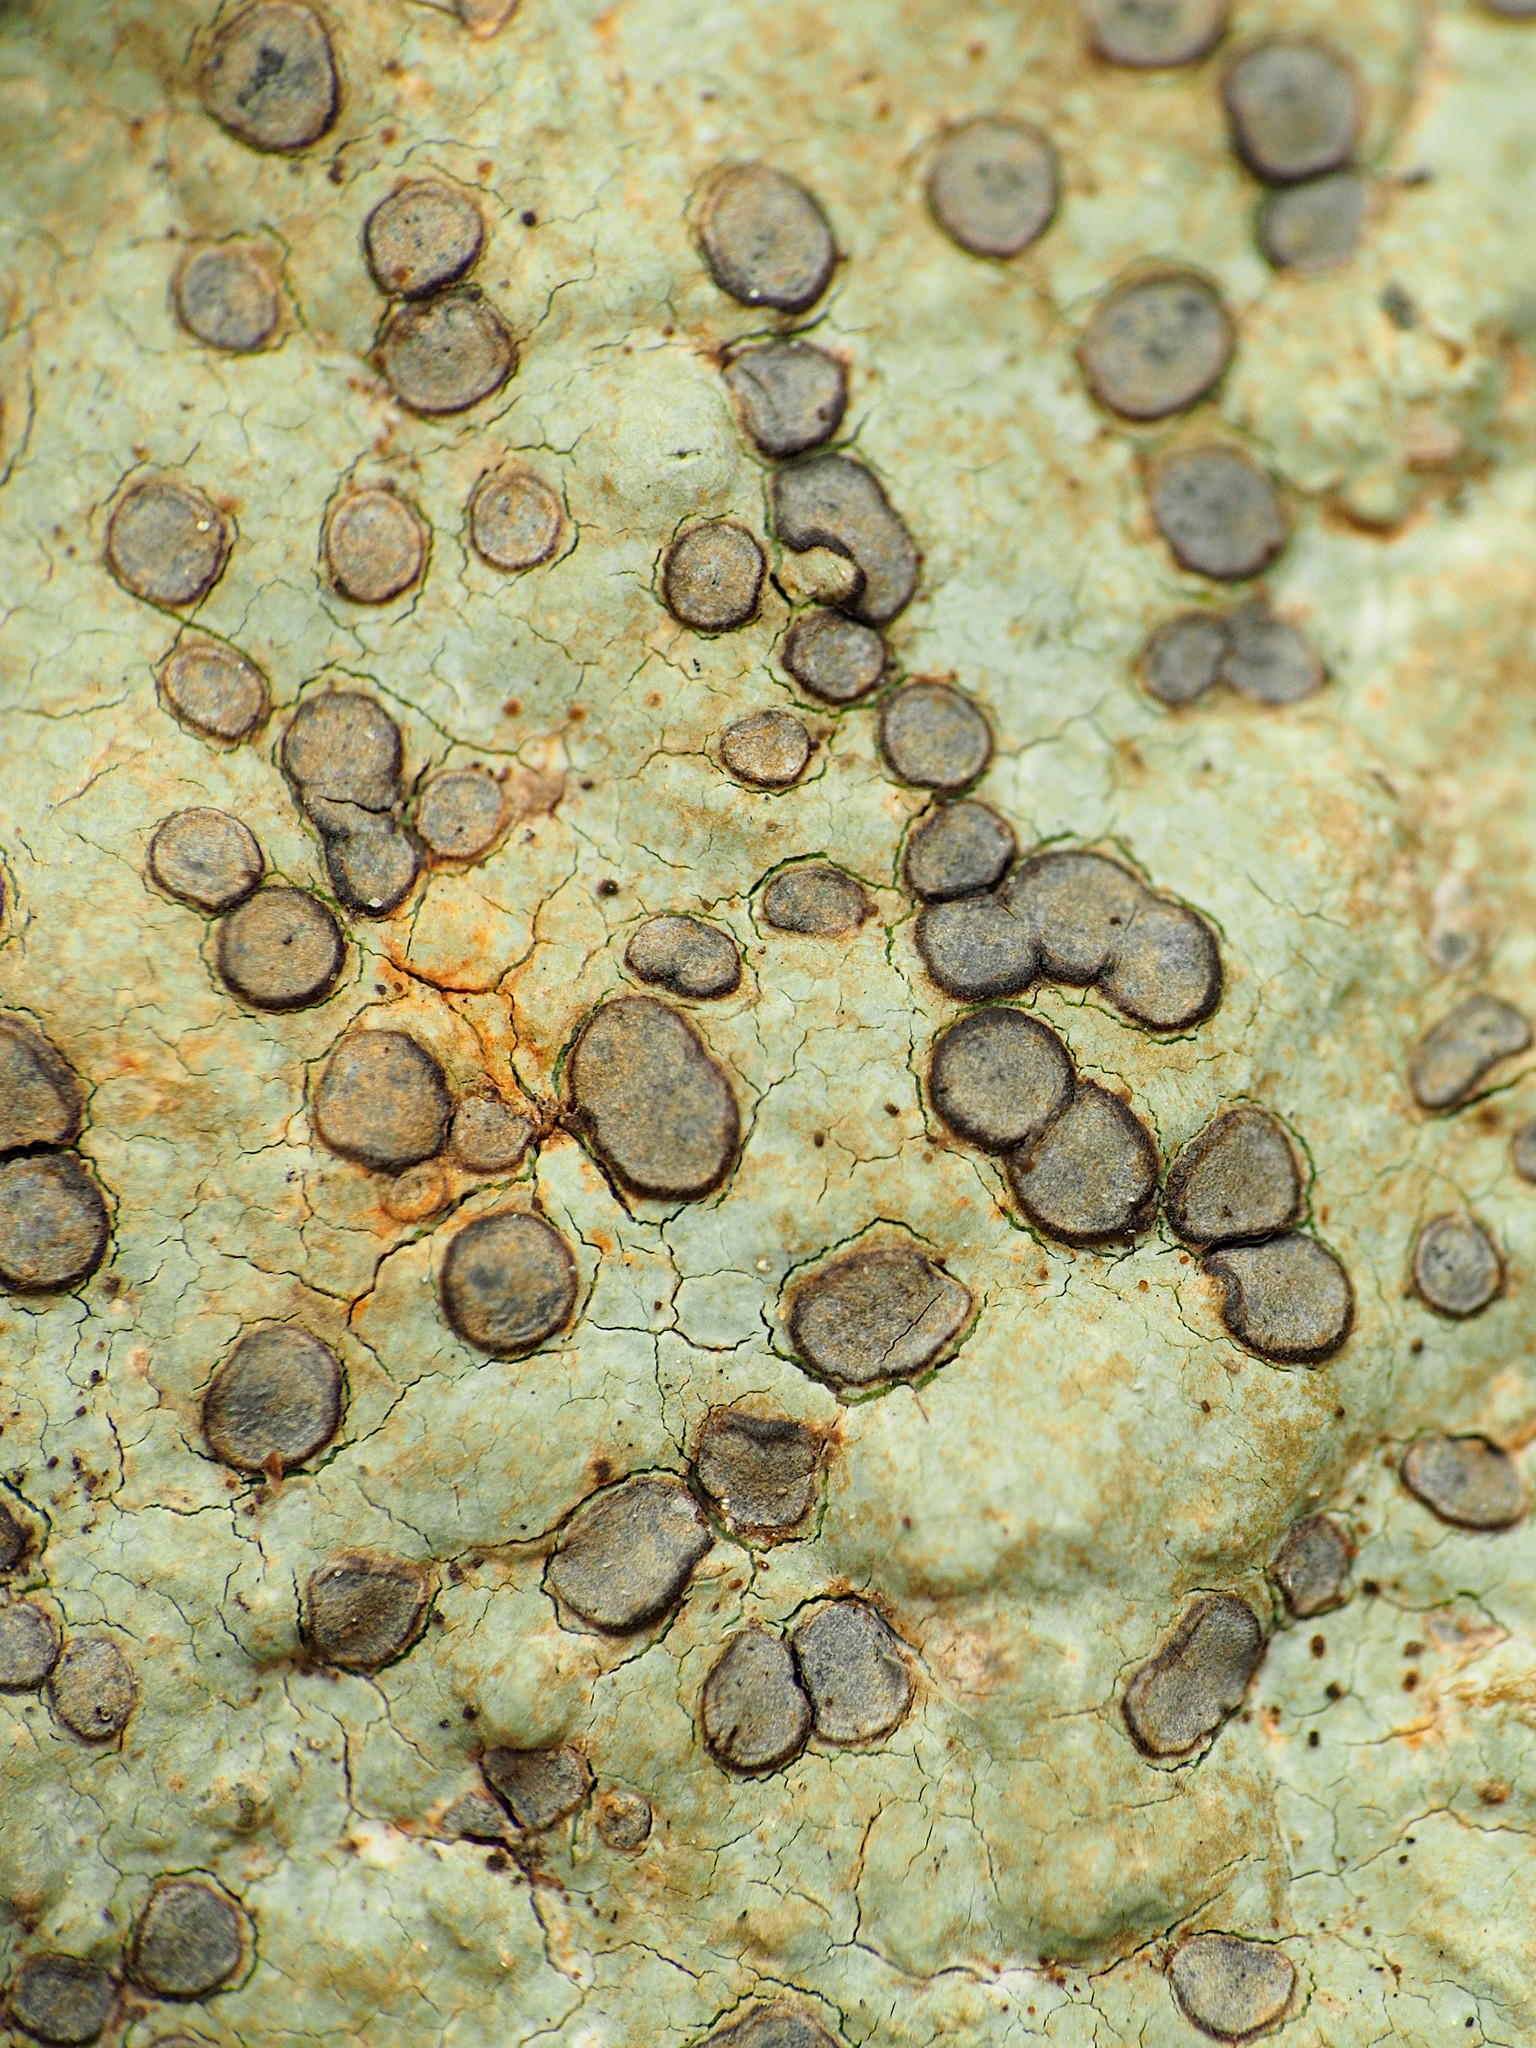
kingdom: Fungi
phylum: Ascomycota
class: Lecanoromycetes
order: Lecideales
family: Lecideaceae
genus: Porpidia
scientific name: Porpidia albocaerulescens
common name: Smokey-eyed boulder lichen
